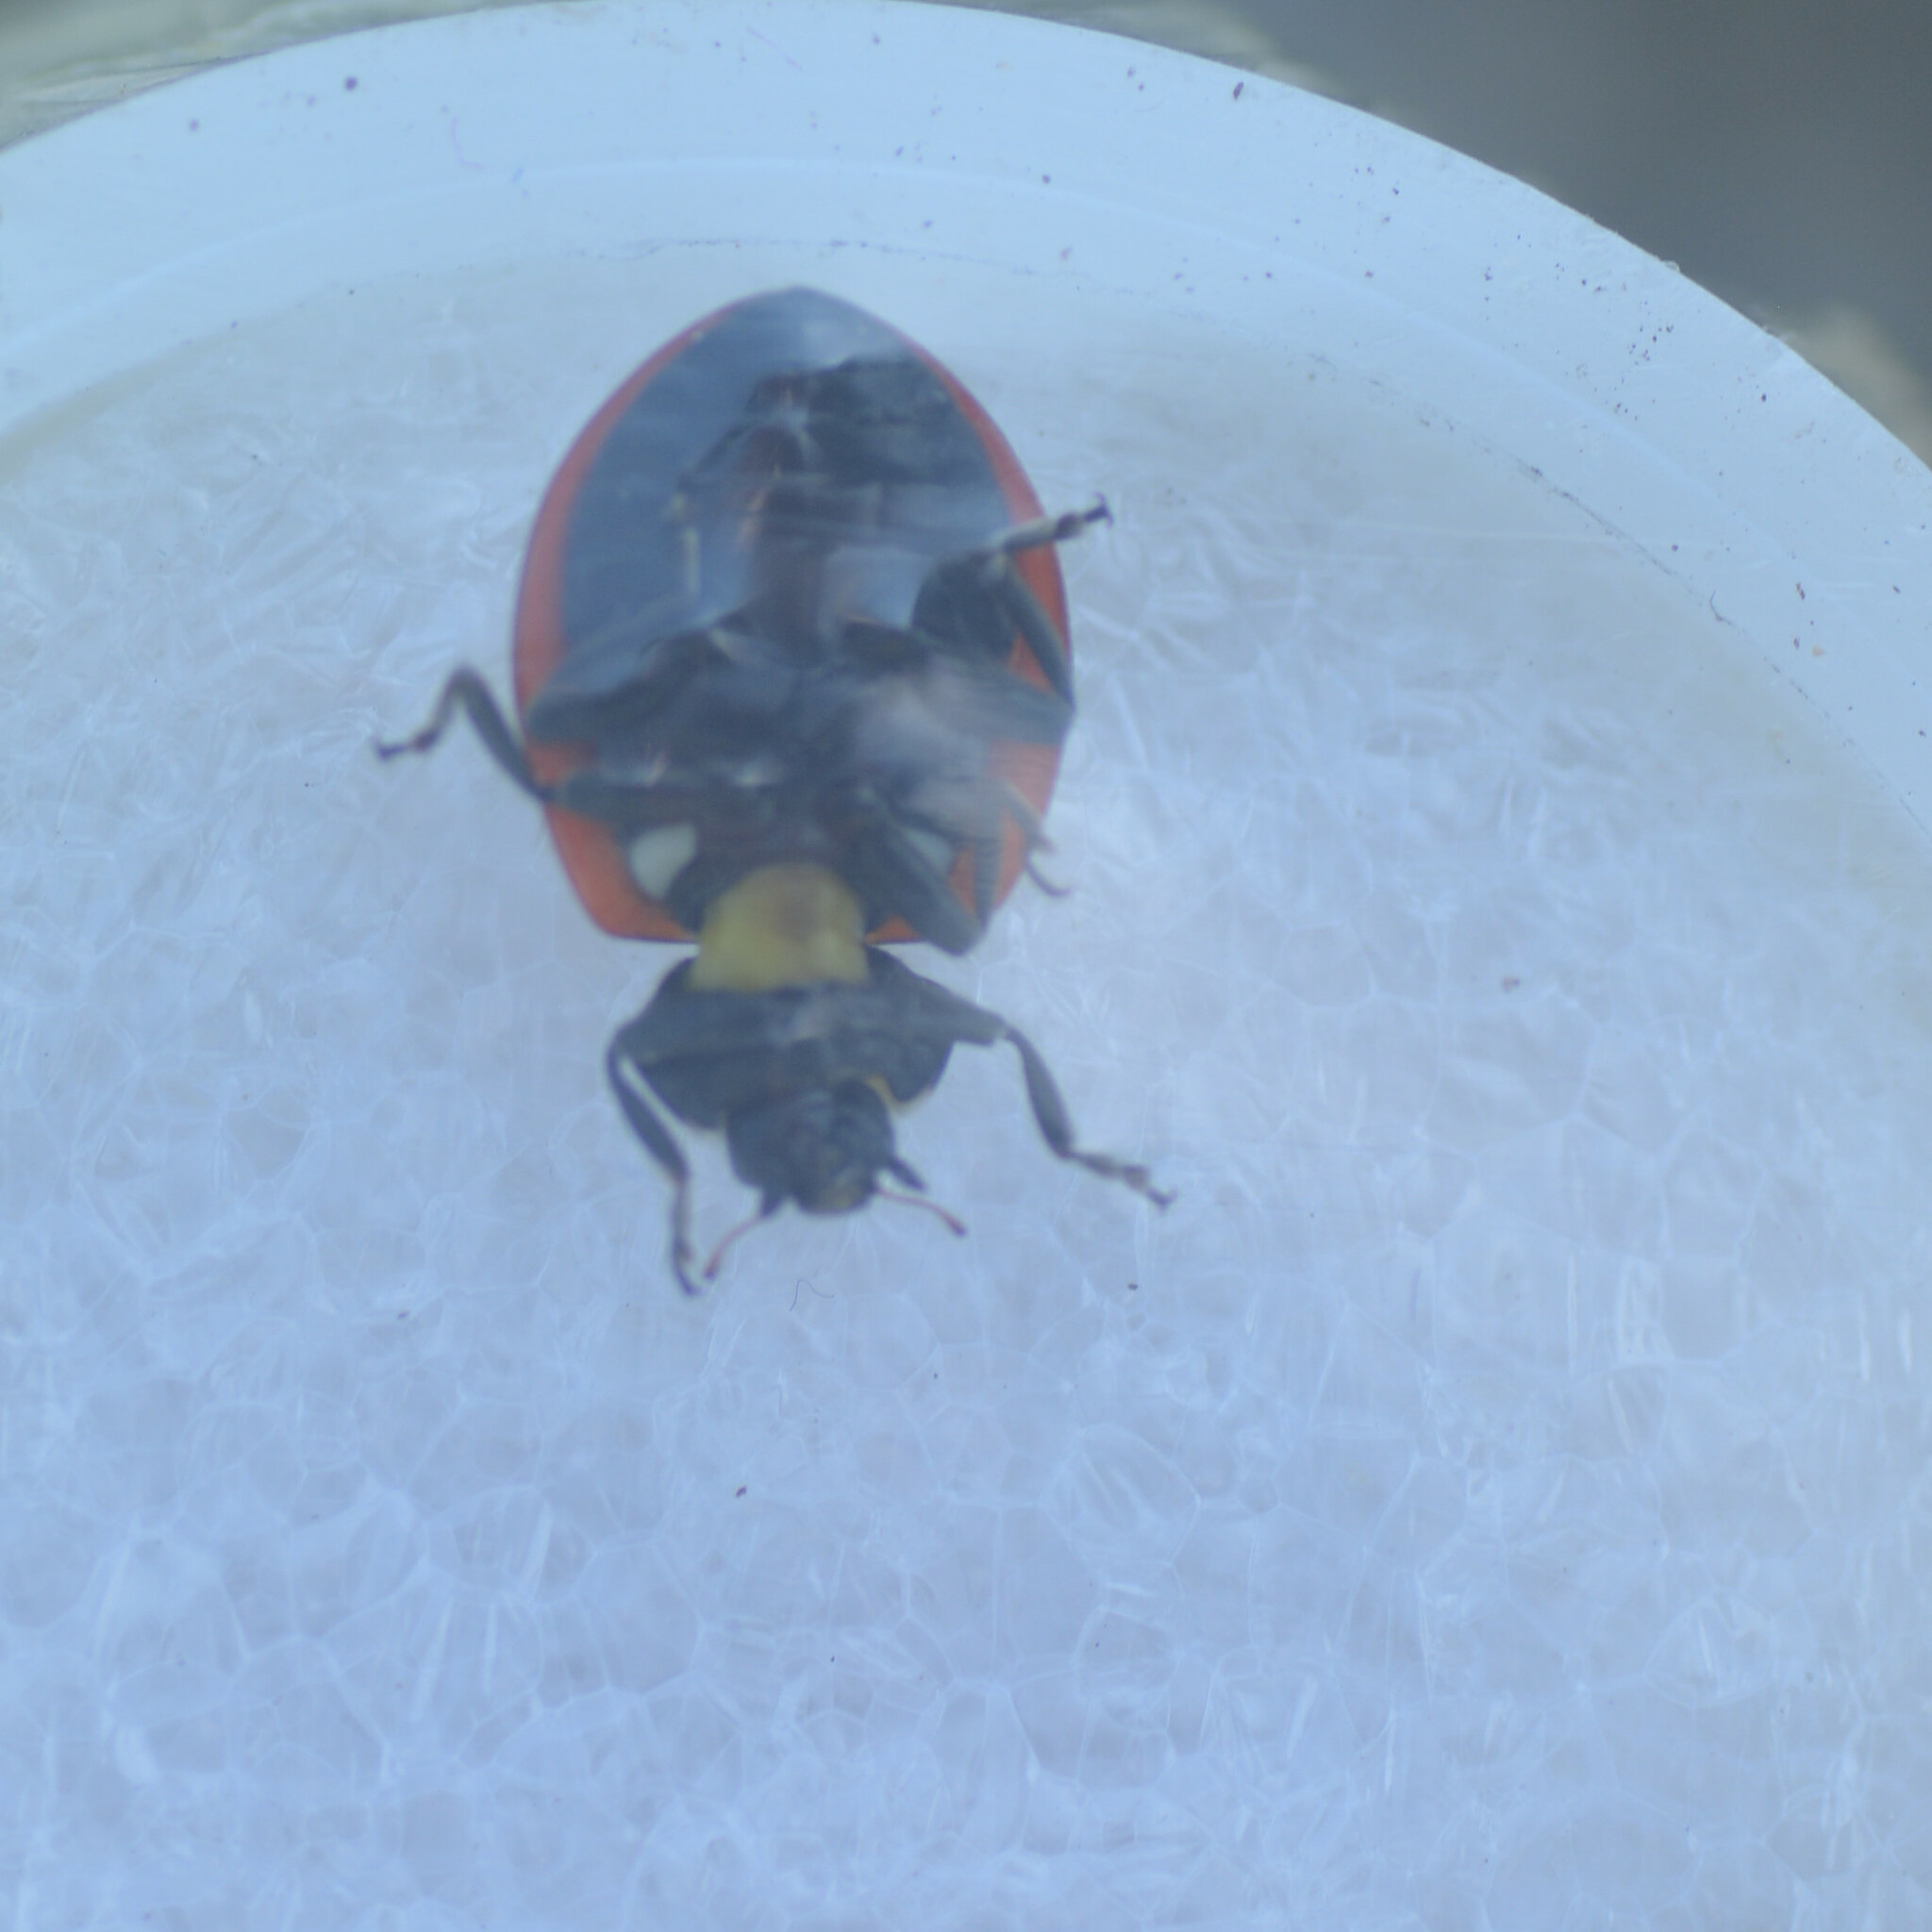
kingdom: Animalia
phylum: Arthropoda
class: Insecta
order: Coleoptera
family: Coccinellidae
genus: Coccinella
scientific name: Coccinella septempunctata
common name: Sevenspotted lady beetle
